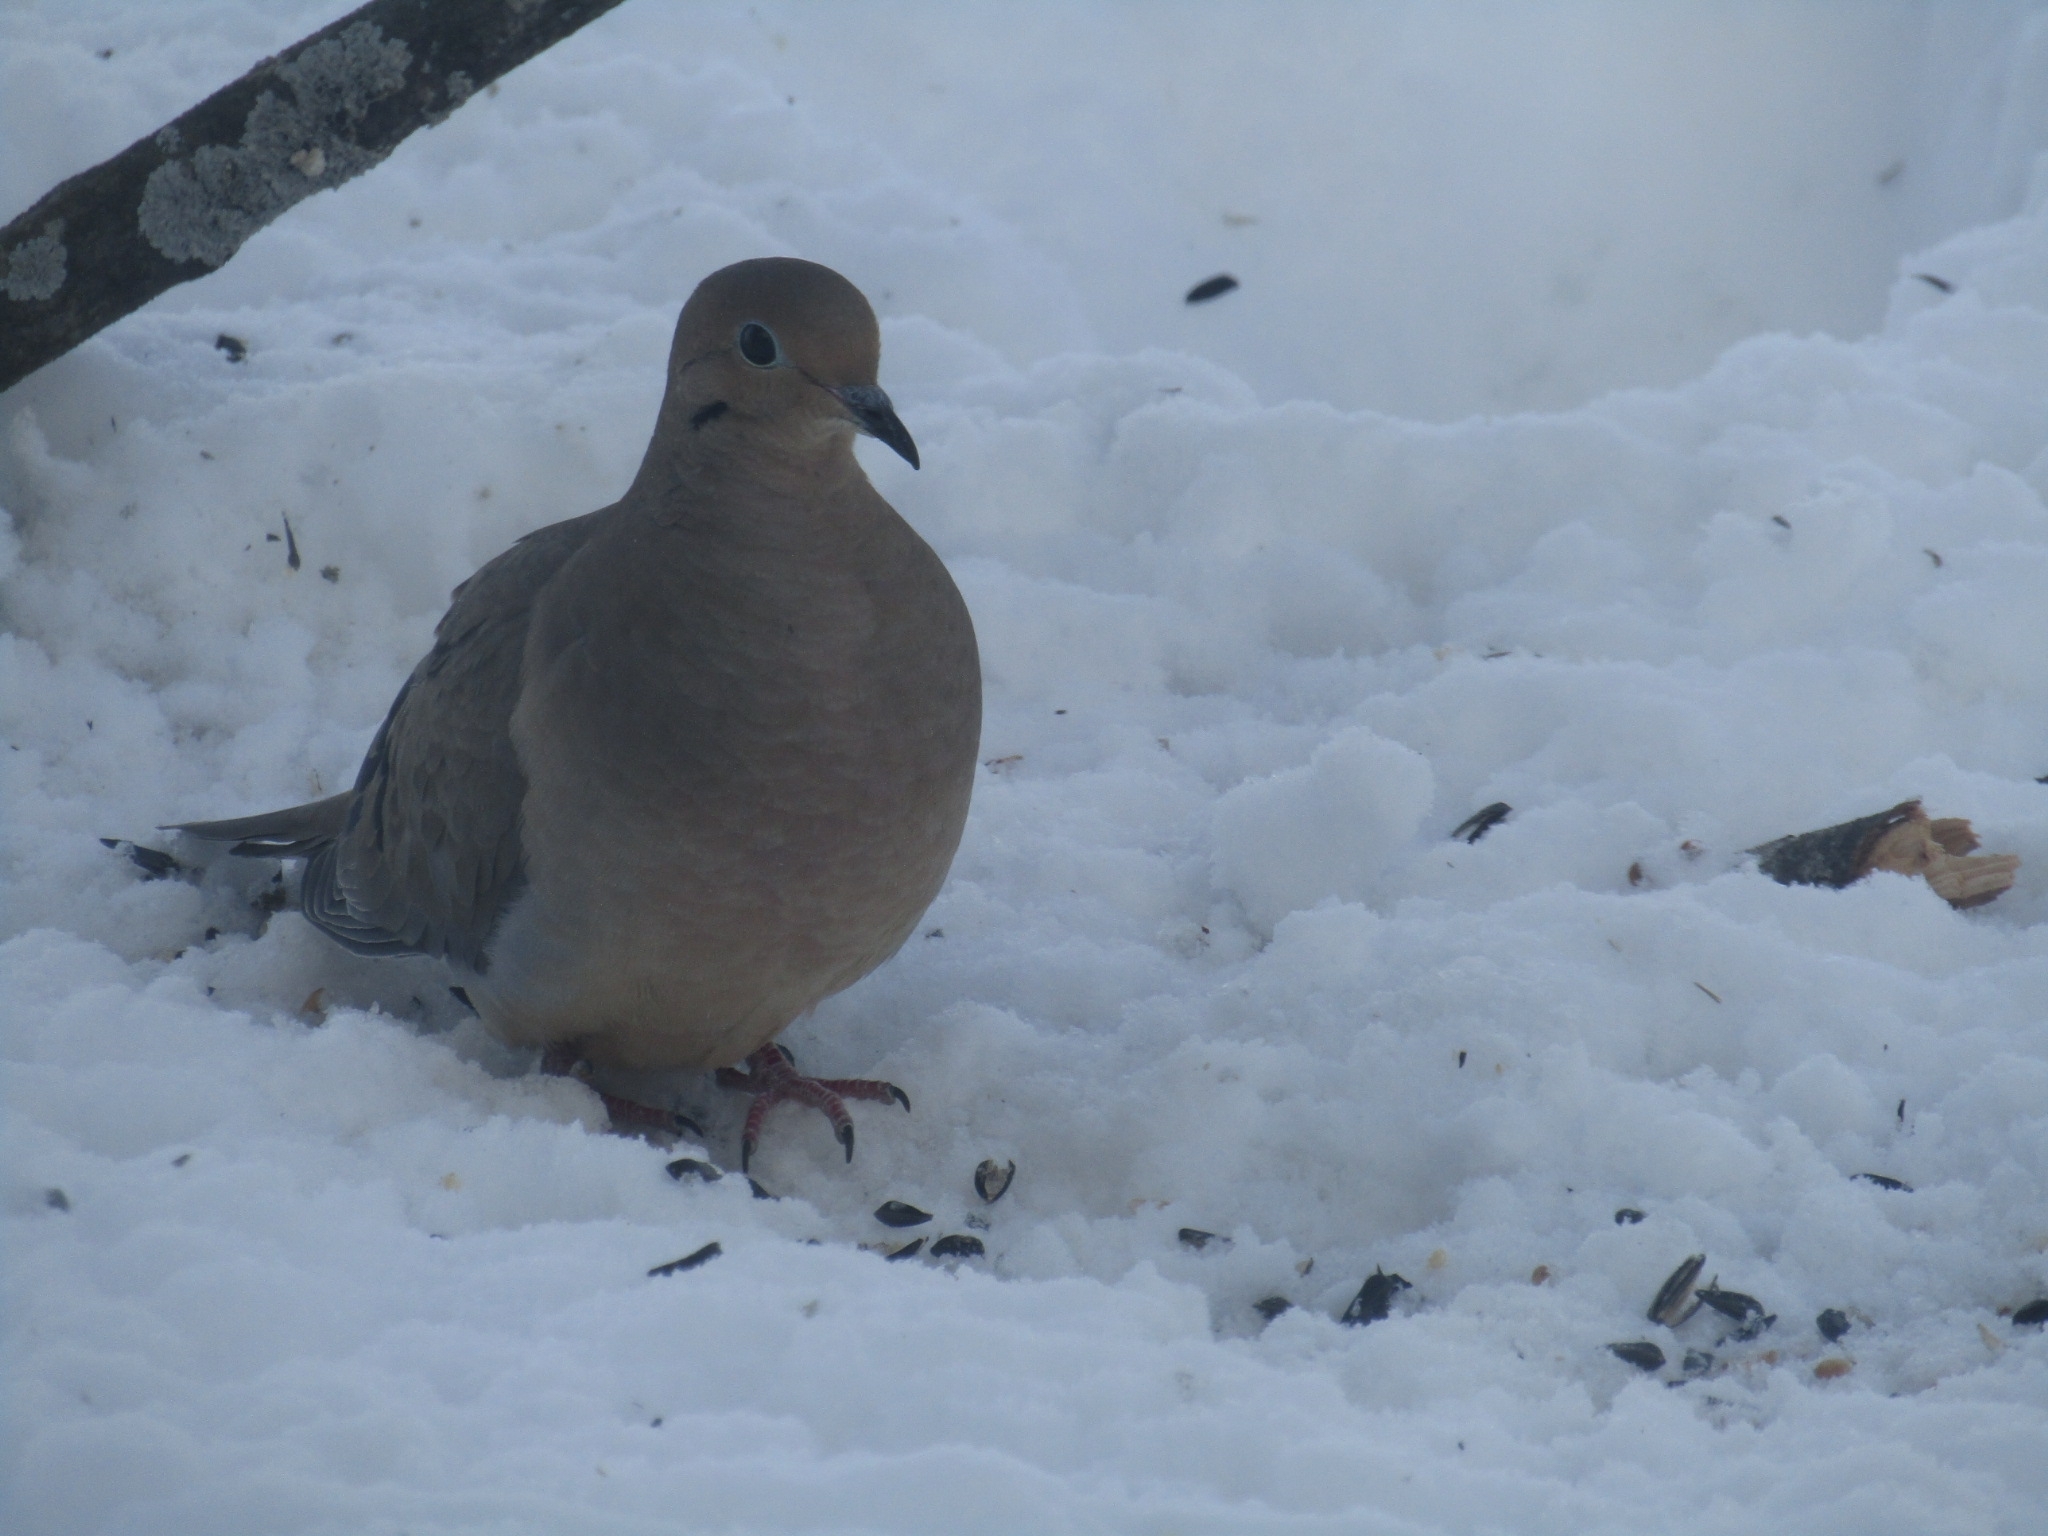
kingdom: Animalia
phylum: Chordata
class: Aves
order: Columbiformes
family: Columbidae
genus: Zenaida
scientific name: Zenaida macroura
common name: Mourning dove
